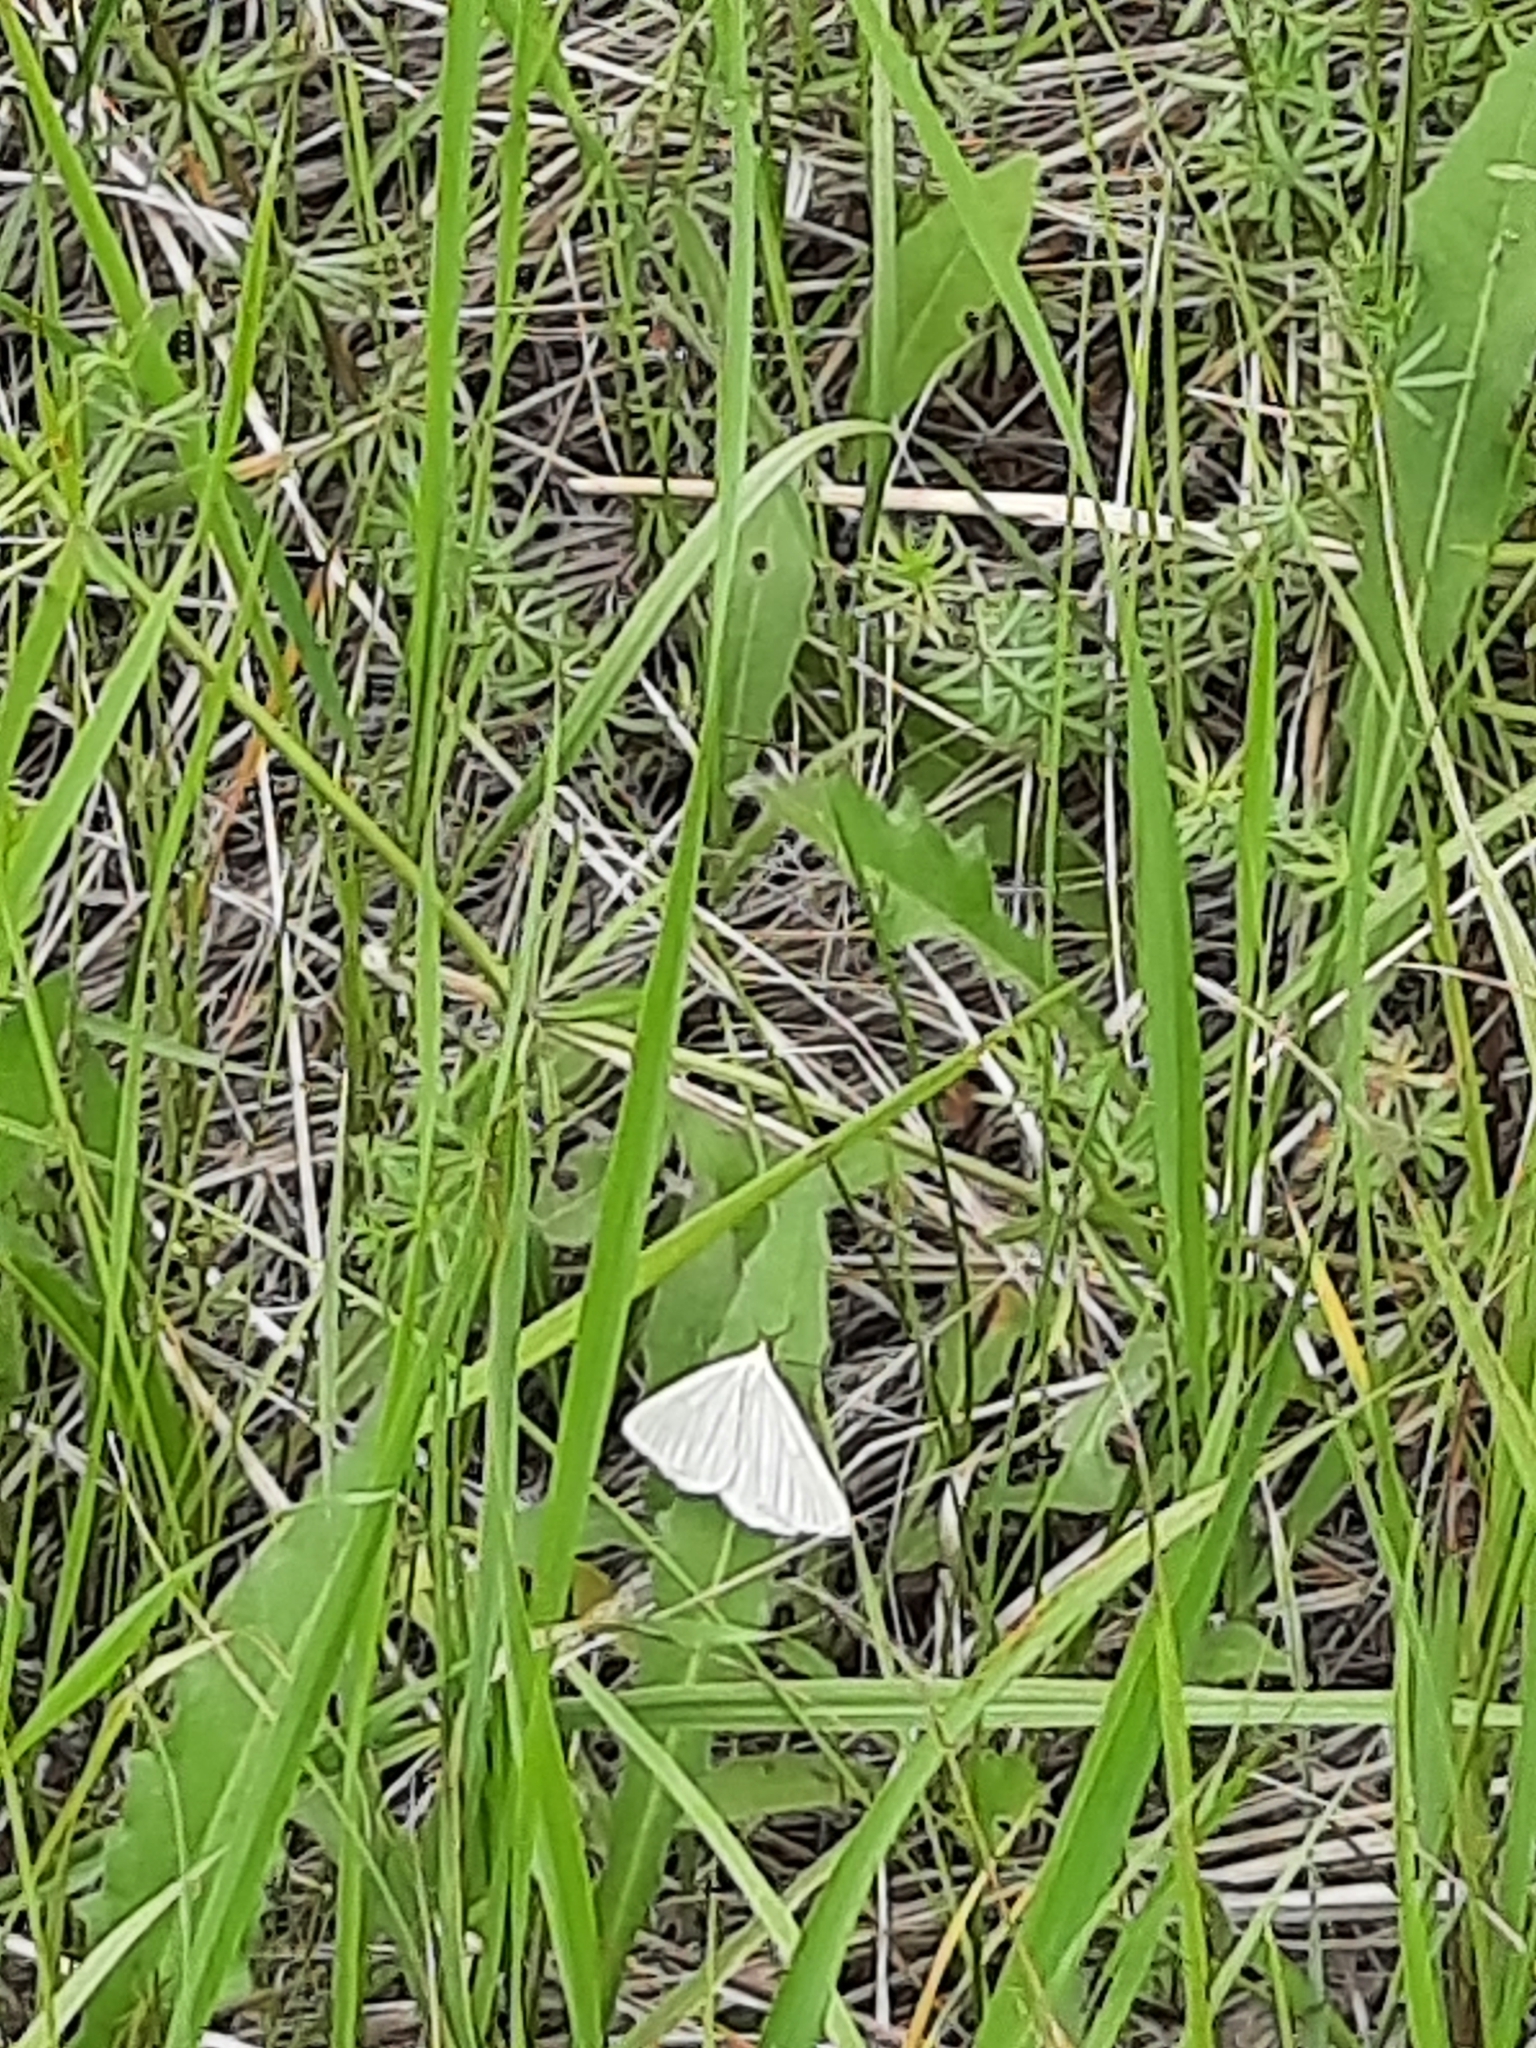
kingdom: Animalia
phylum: Arthropoda
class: Insecta
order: Lepidoptera
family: Geometridae
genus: Siona
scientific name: Siona lineata
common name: Black-veined moth
